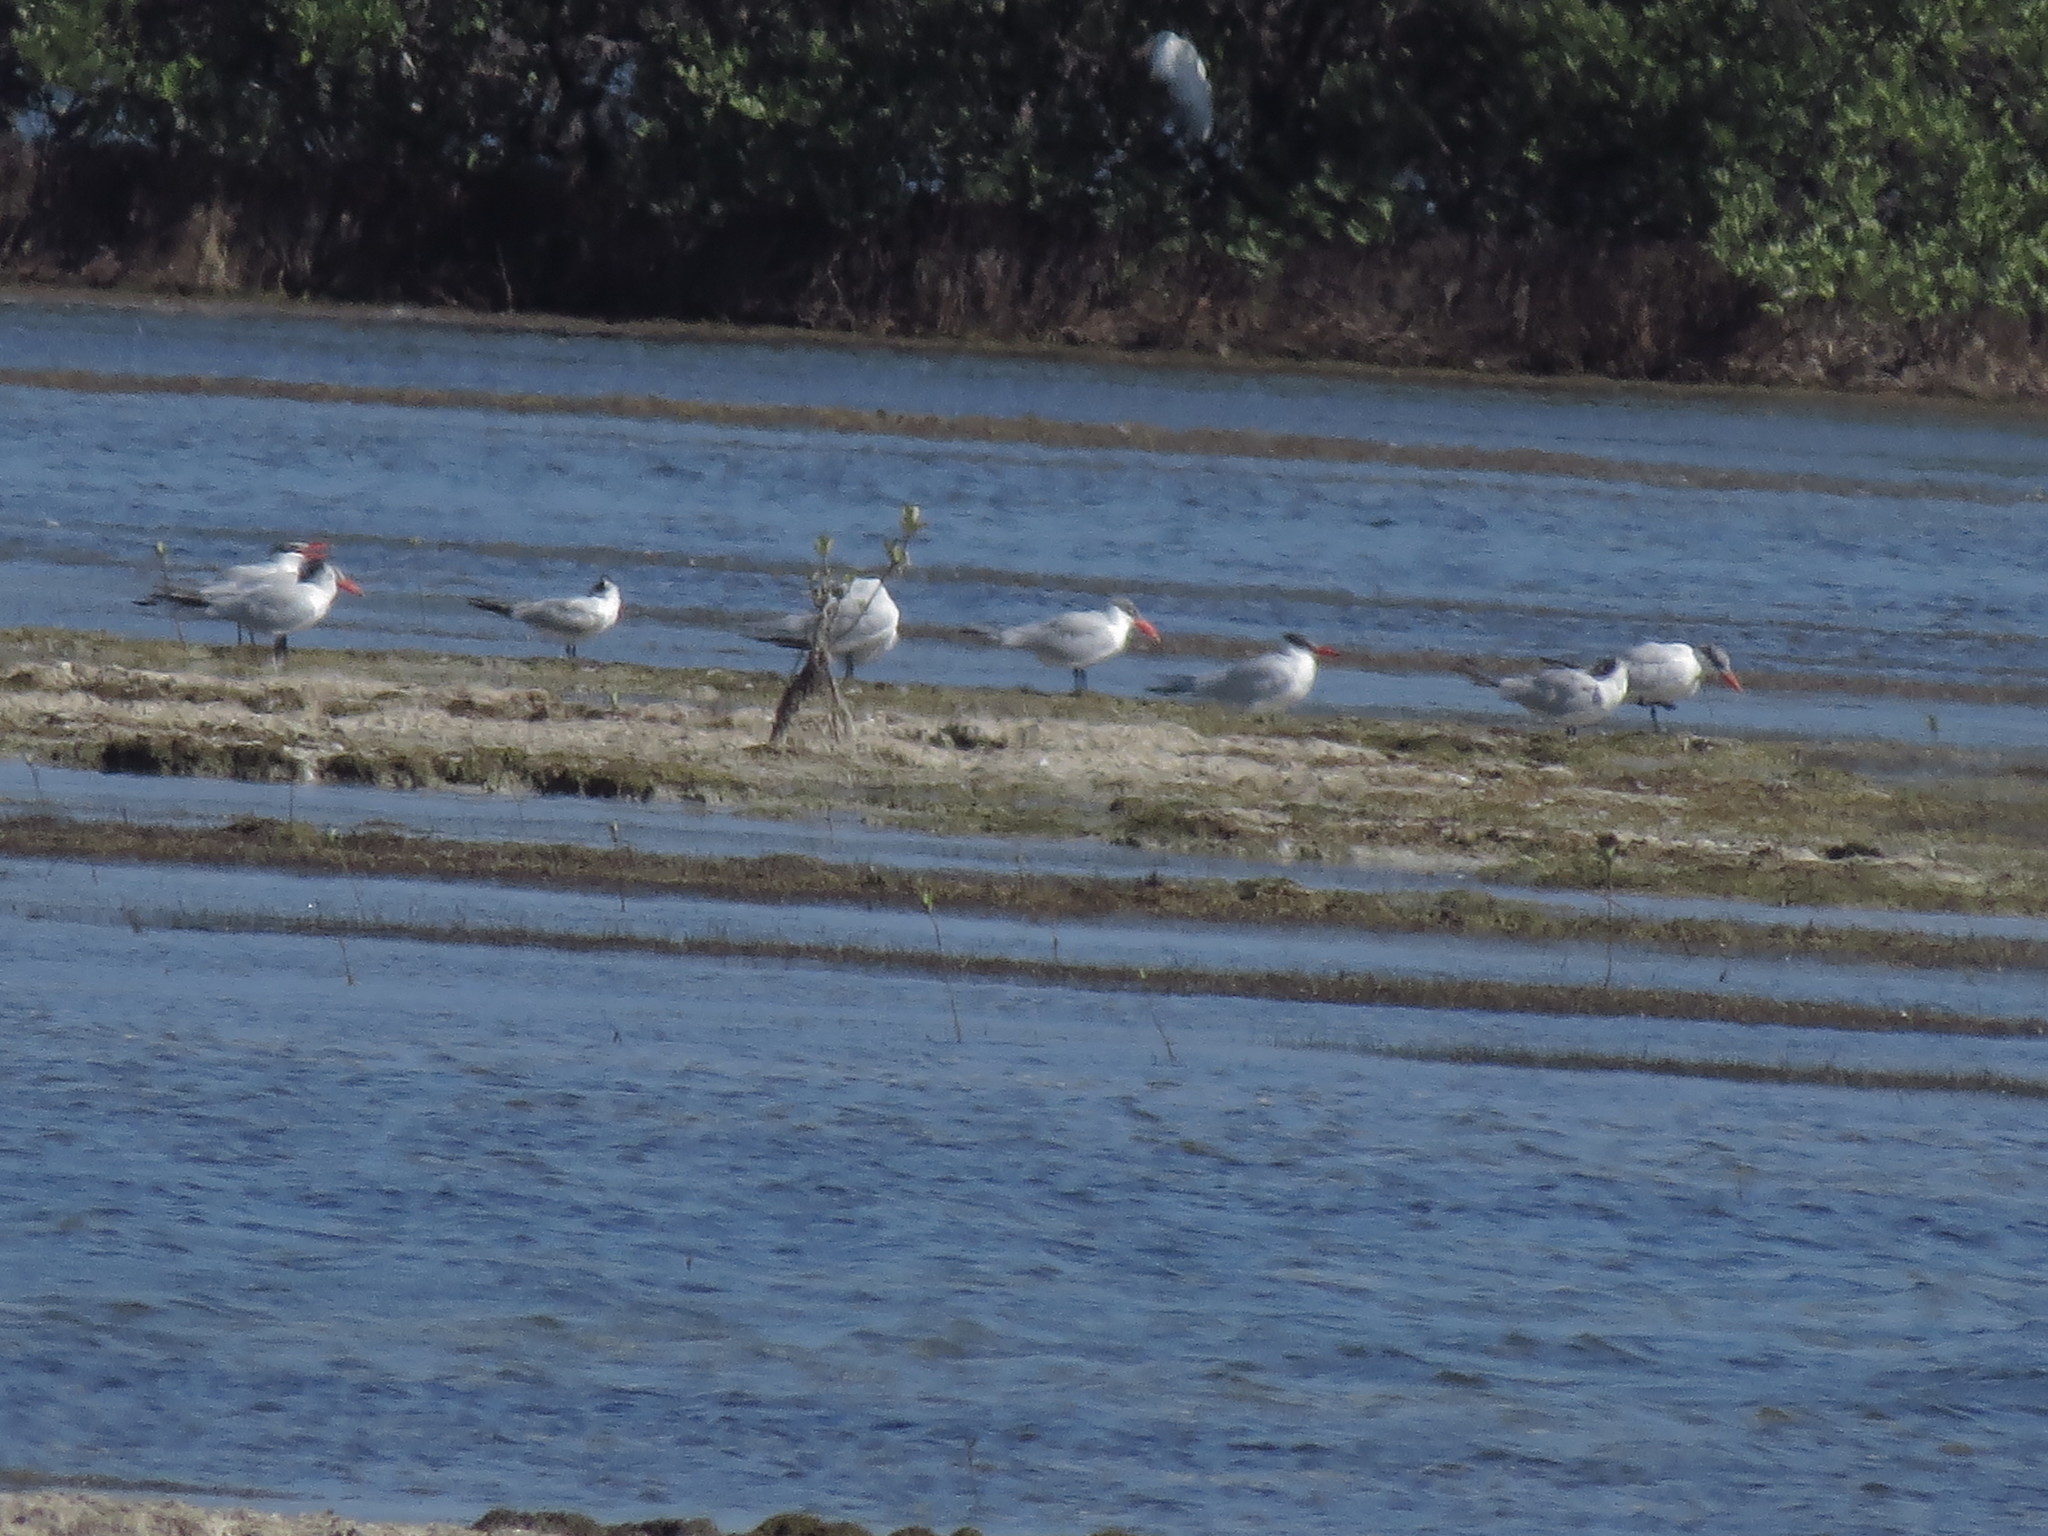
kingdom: Animalia
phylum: Chordata
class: Aves
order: Charadriiformes
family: Laridae
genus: Hydroprogne
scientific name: Hydroprogne caspia
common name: Caspian tern
